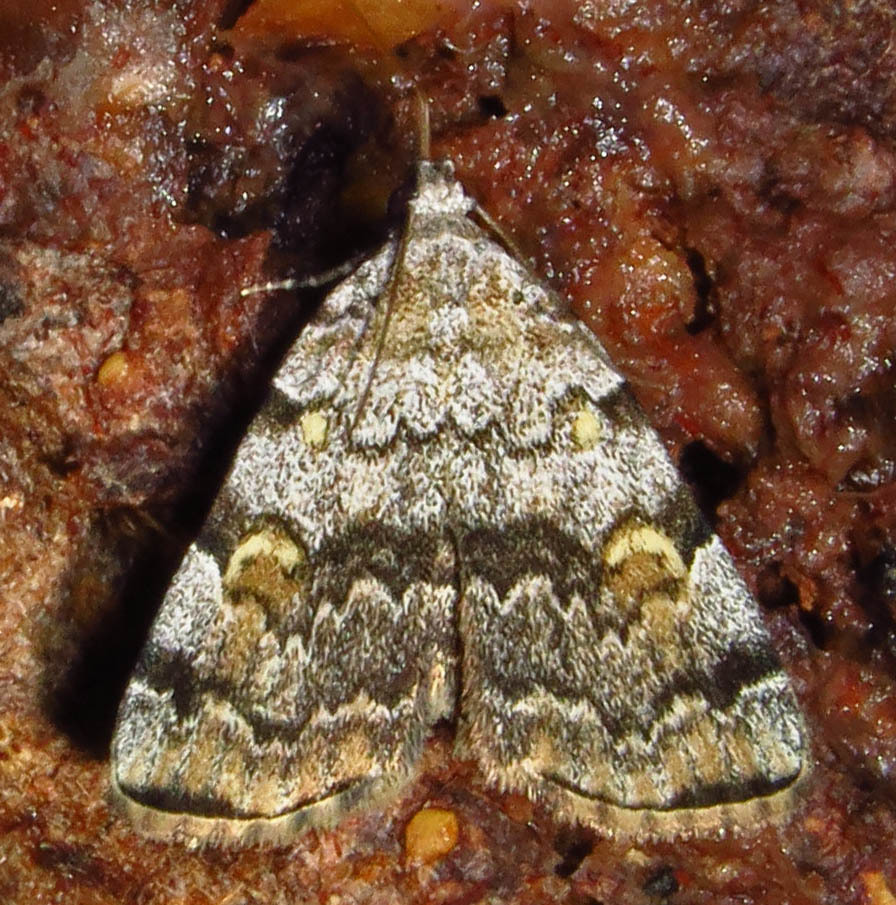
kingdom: Animalia
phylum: Arthropoda
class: Insecta
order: Lepidoptera
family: Erebidae
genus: Idia
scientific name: Idia americalis
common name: American idia moth
